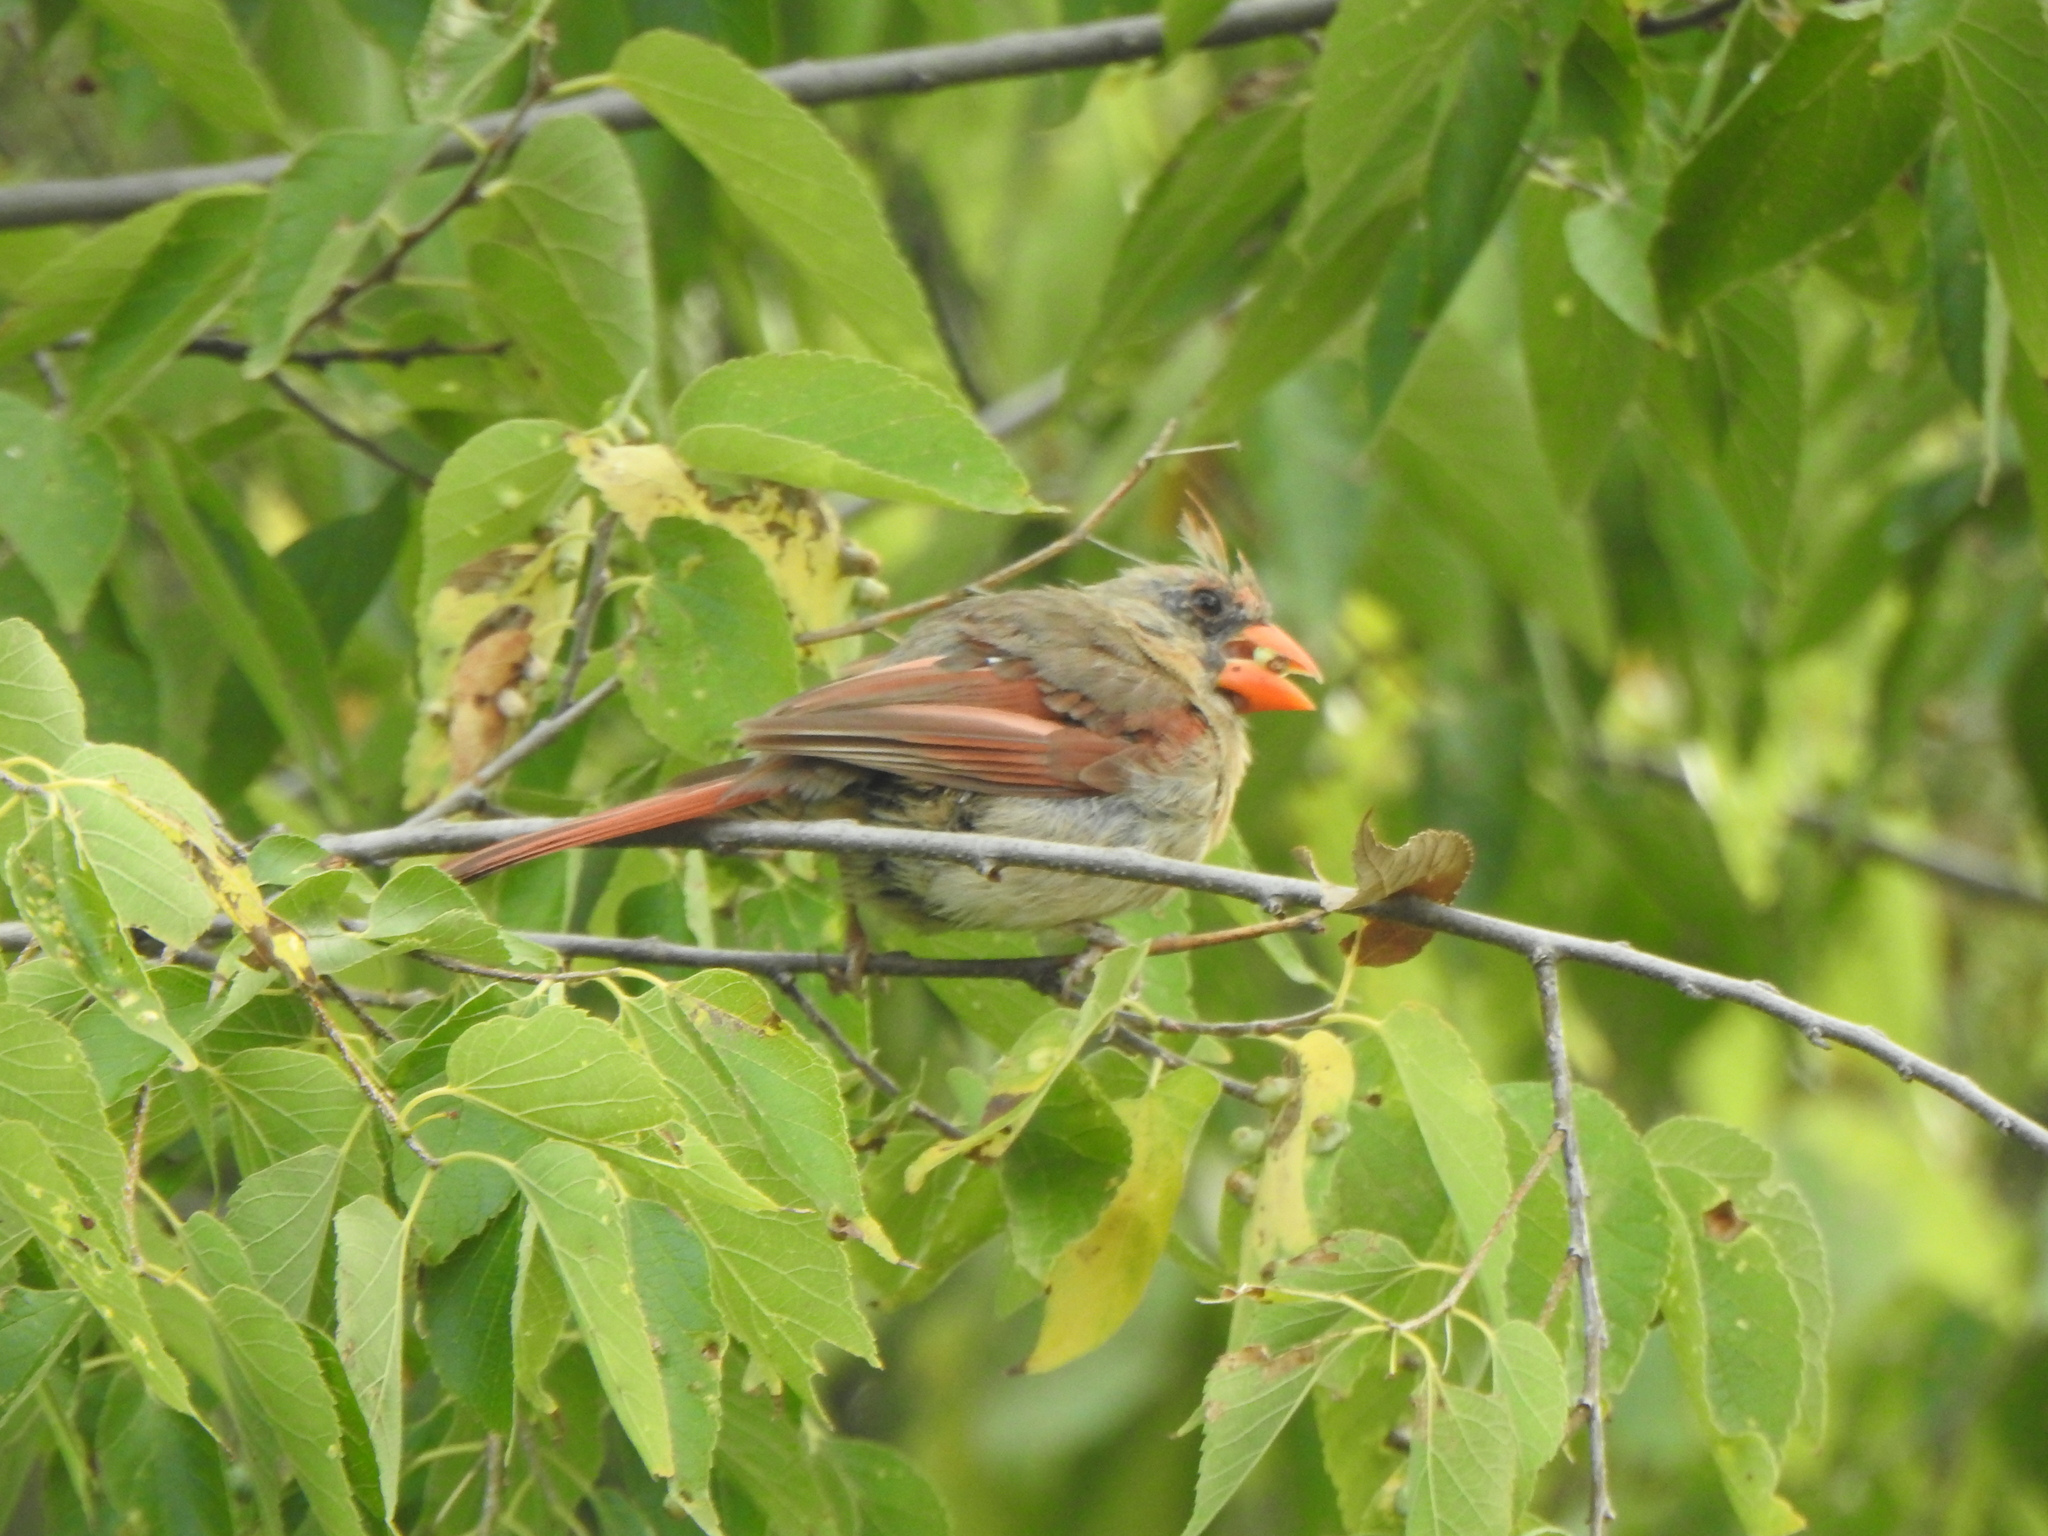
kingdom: Animalia
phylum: Chordata
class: Aves
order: Passeriformes
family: Cardinalidae
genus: Cardinalis
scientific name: Cardinalis cardinalis
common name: Northern cardinal
